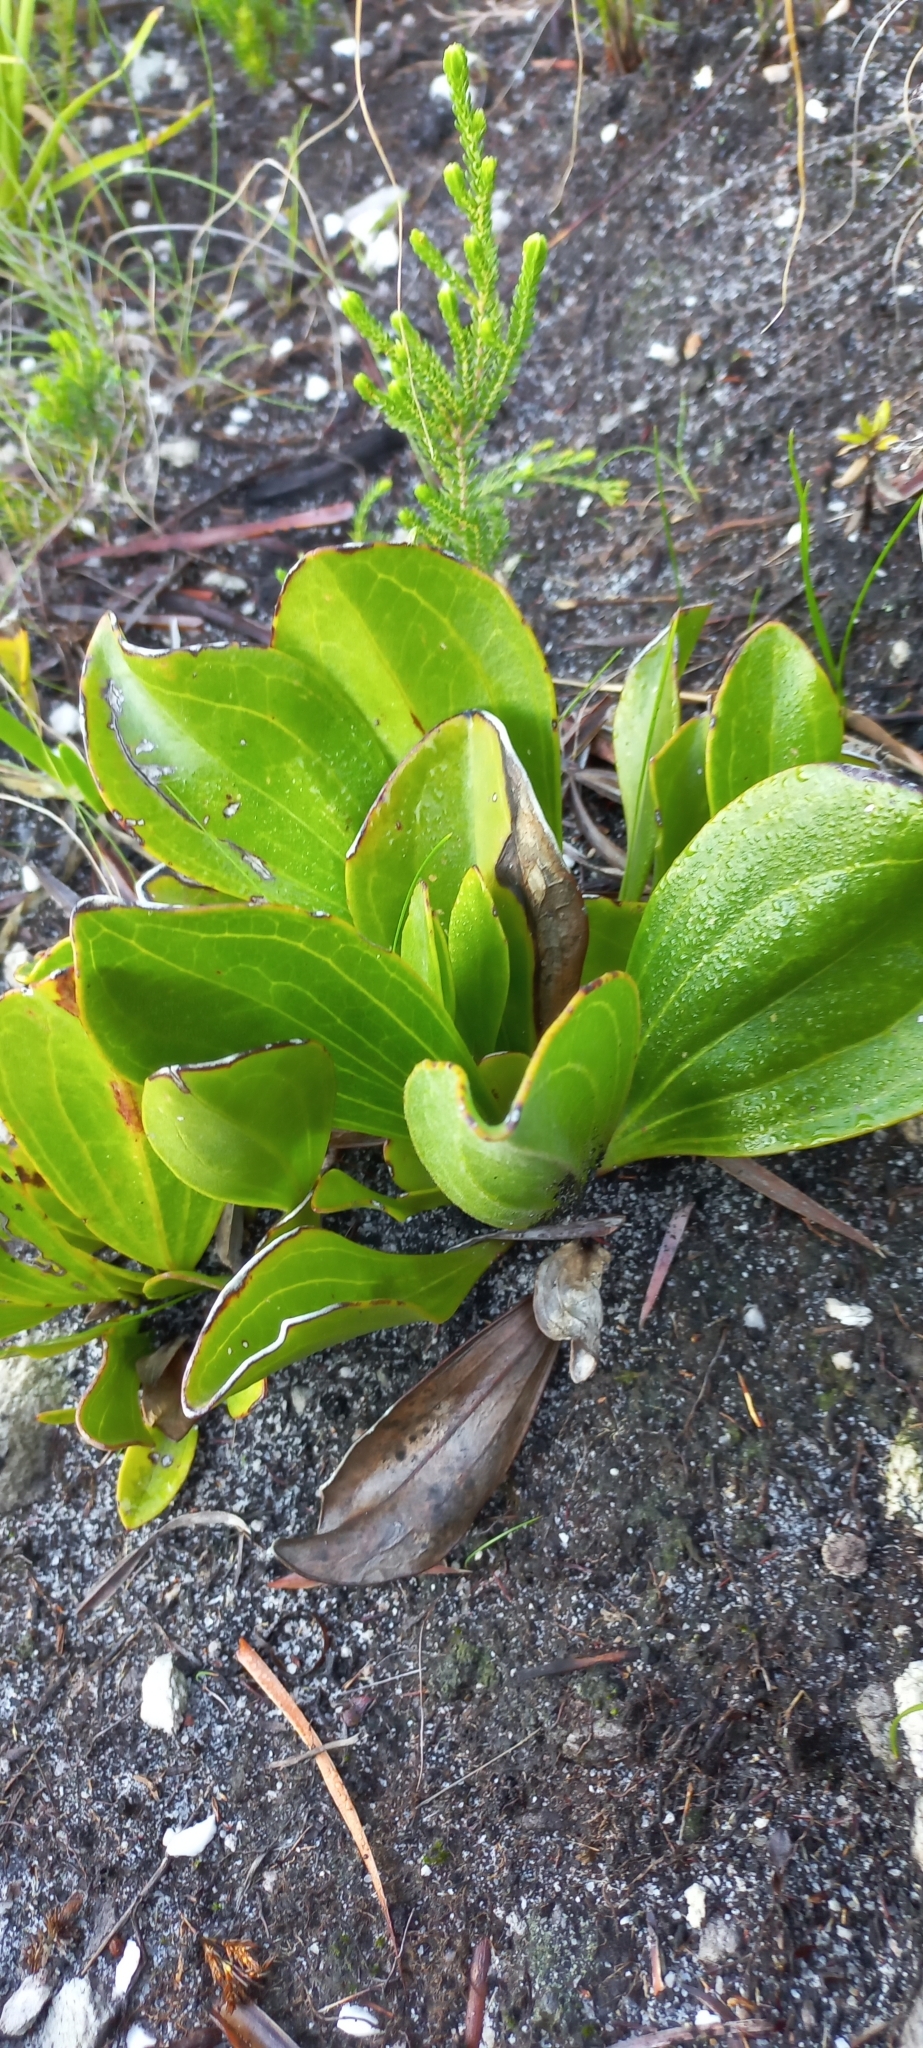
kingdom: Plantae
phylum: Tracheophyta
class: Magnoliopsida
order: Asterales
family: Asteraceae
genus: Mairia
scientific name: Mairia coriacea
